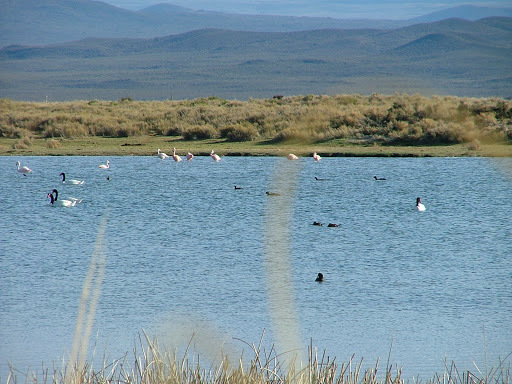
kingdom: Animalia
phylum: Chordata
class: Aves
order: Anseriformes
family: Anatidae
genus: Cygnus
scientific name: Cygnus melancoryphus
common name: Black-necked swan
